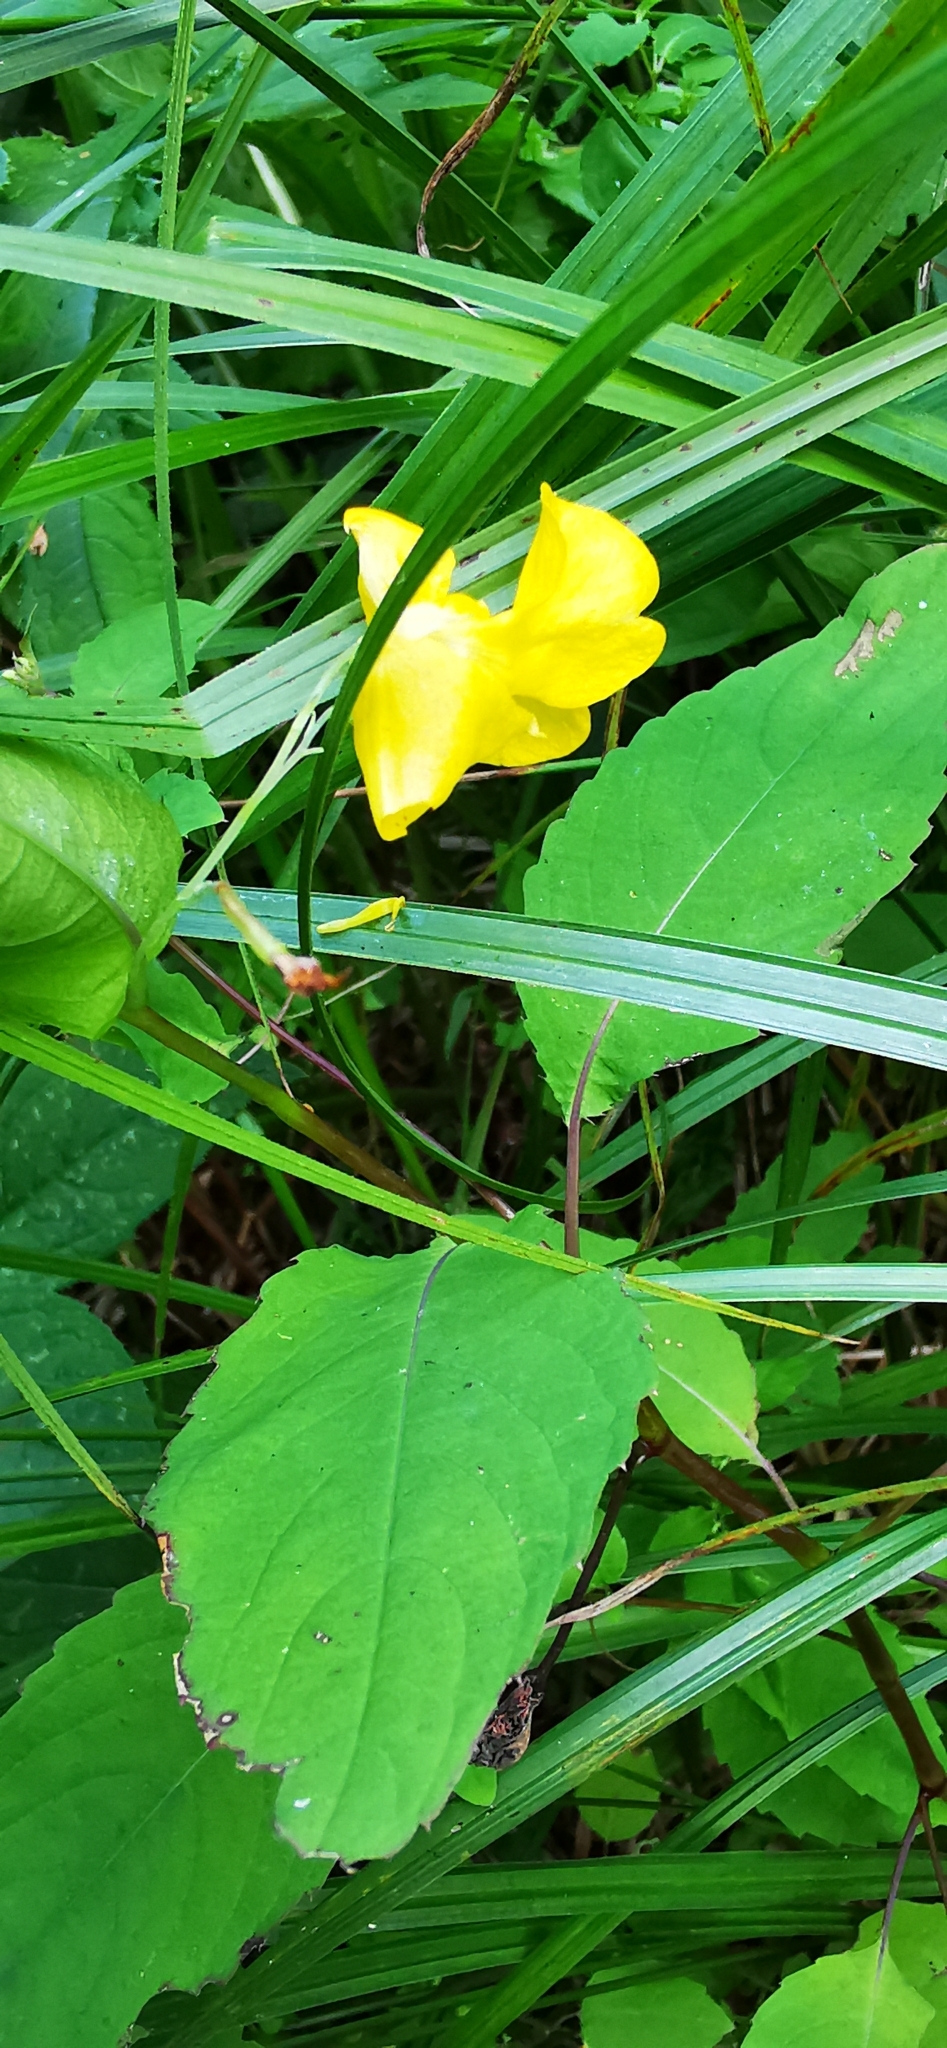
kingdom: Plantae
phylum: Tracheophyta
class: Magnoliopsida
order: Ericales
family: Balsaminaceae
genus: Impatiens
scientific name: Impatiens noli-tangere
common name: Touch-me-not balsam
